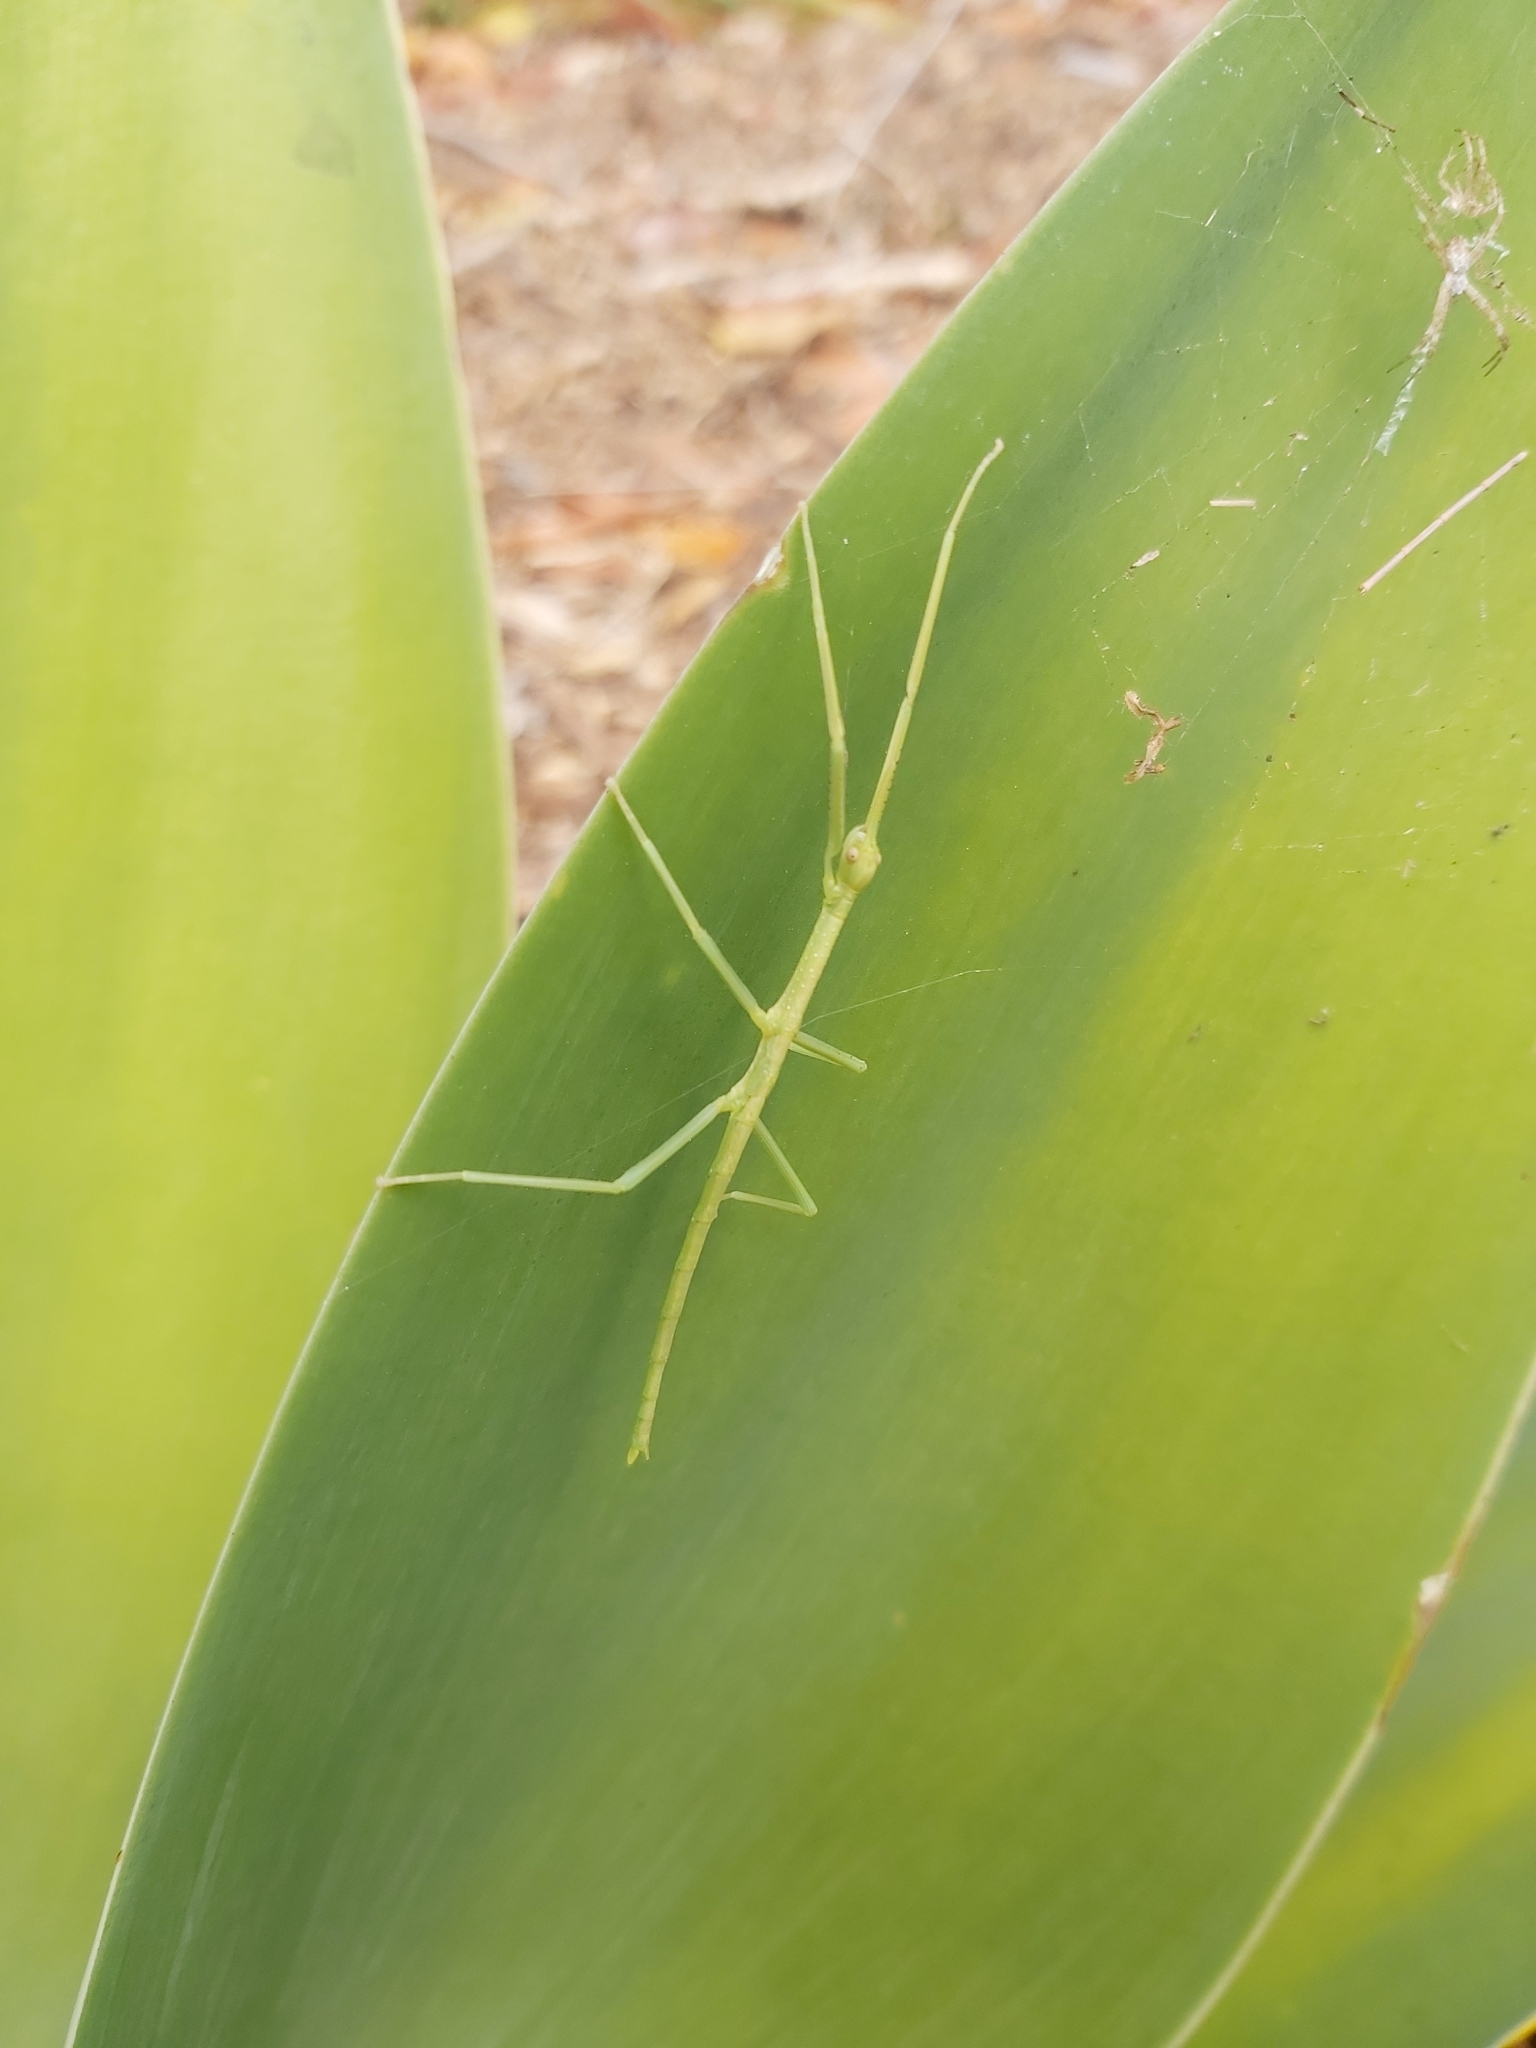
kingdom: Animalia
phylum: Arthropoda
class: Insecta
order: Phasmida
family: Phasmatidae
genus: Anchiale
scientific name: Anchiale briareus
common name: Strong stick insect
